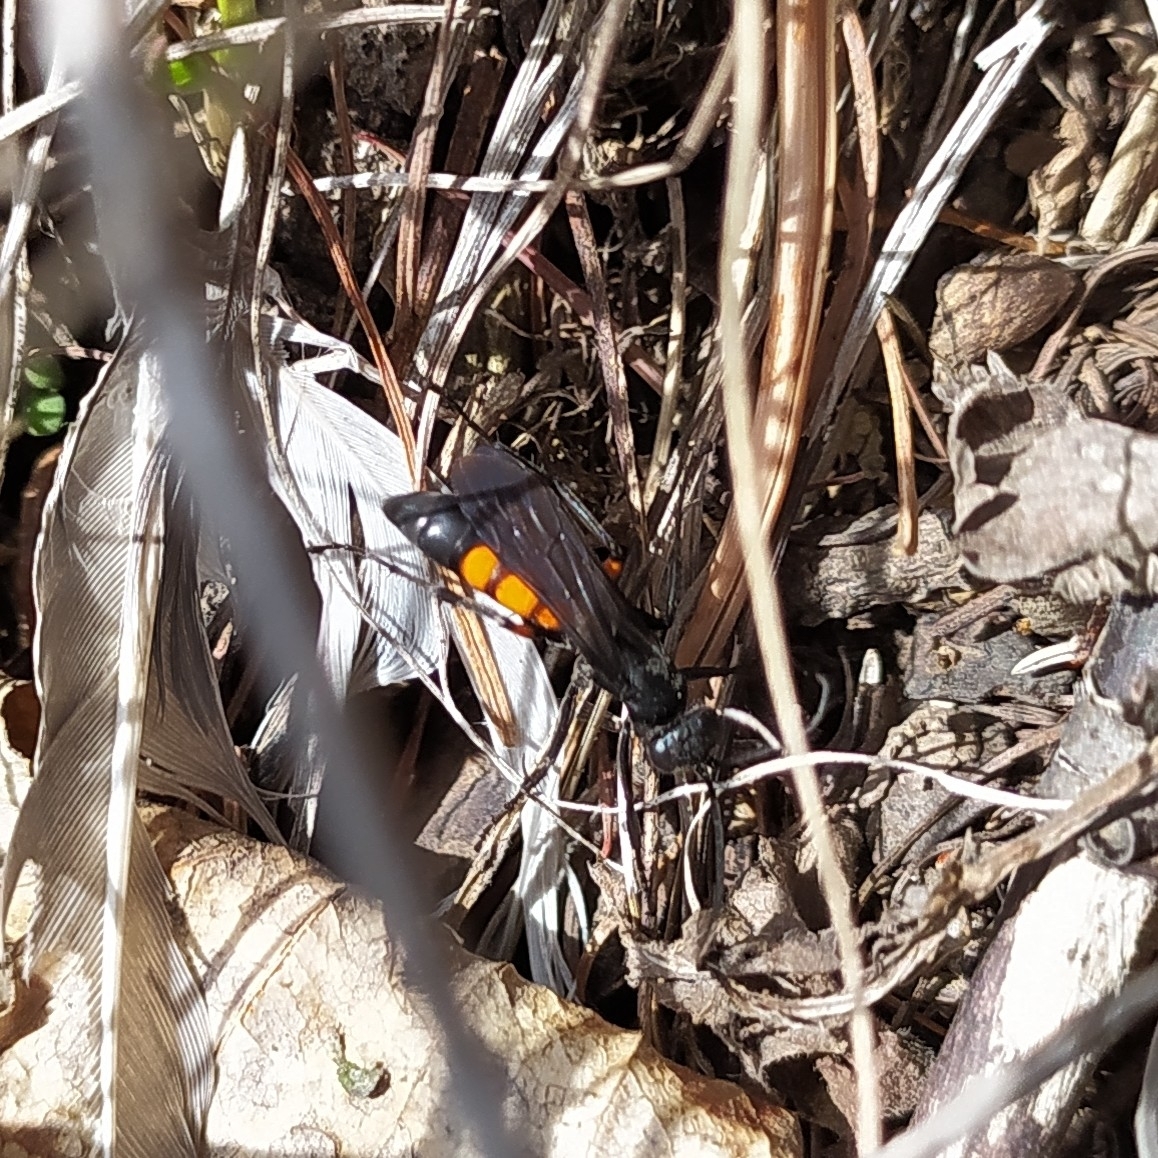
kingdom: Animalia
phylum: Arthropoda
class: Insecta
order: Hymenoptera
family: Pompilidae
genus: Anoplius
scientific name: Anoplius viaticus
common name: Black banded spider wasp
